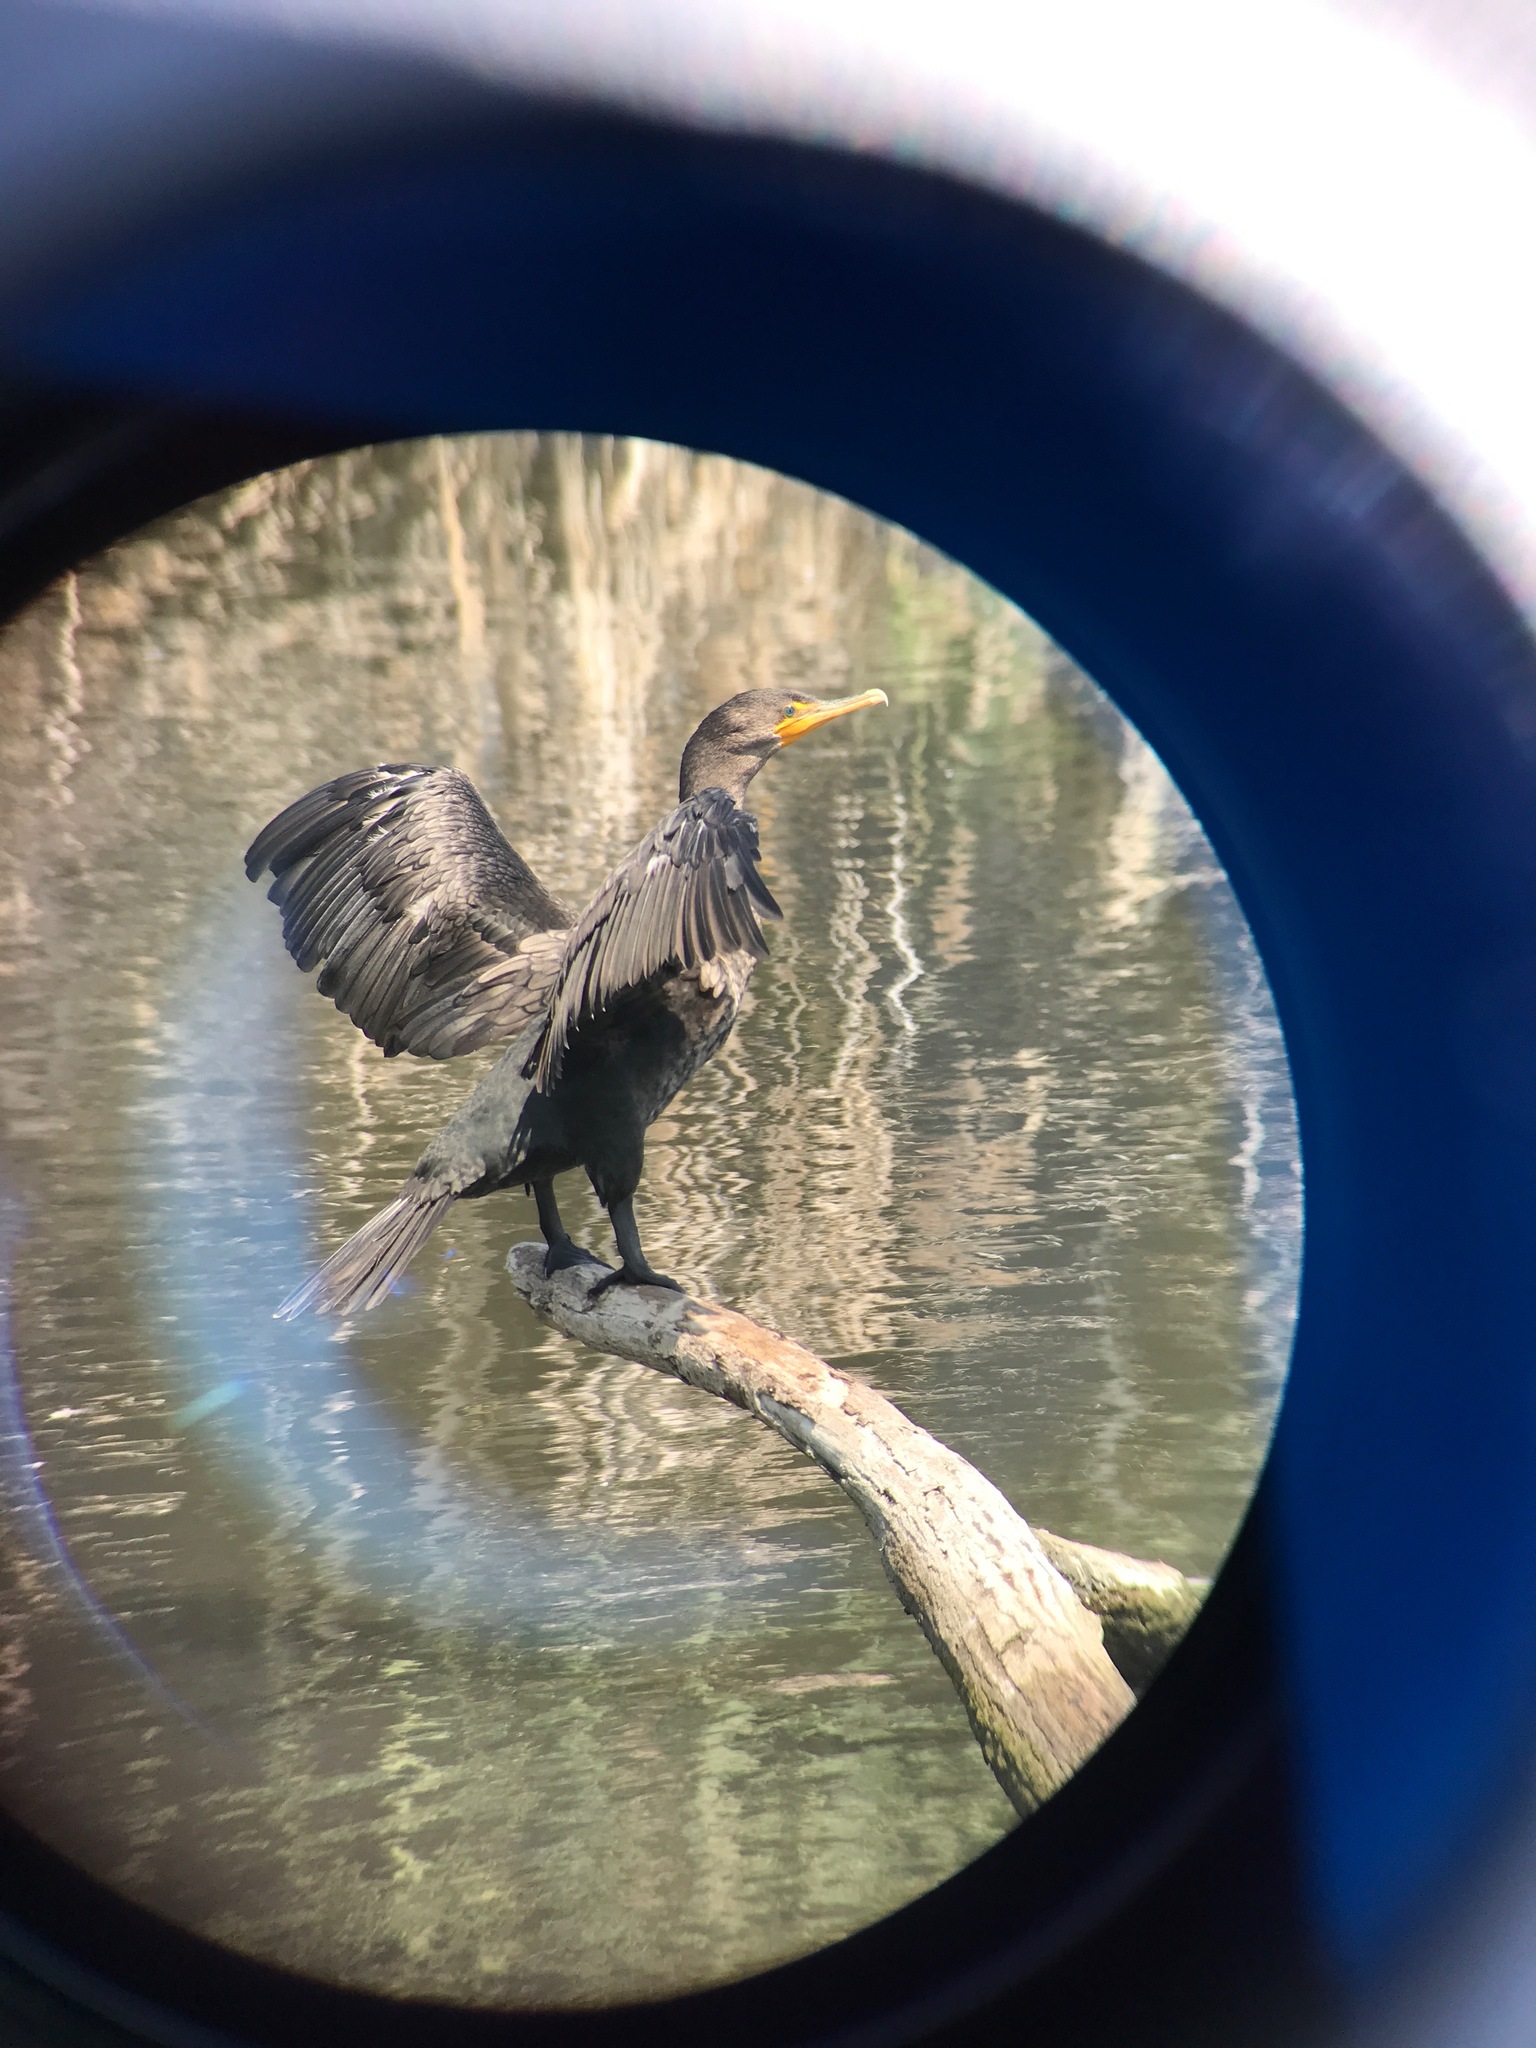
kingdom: Animalia
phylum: Chordata
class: Aves
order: Suliformes
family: Phalacrocoracidae
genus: Phalacrocorax
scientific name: Phalacrocorax auritus
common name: Double-crested cormorant
